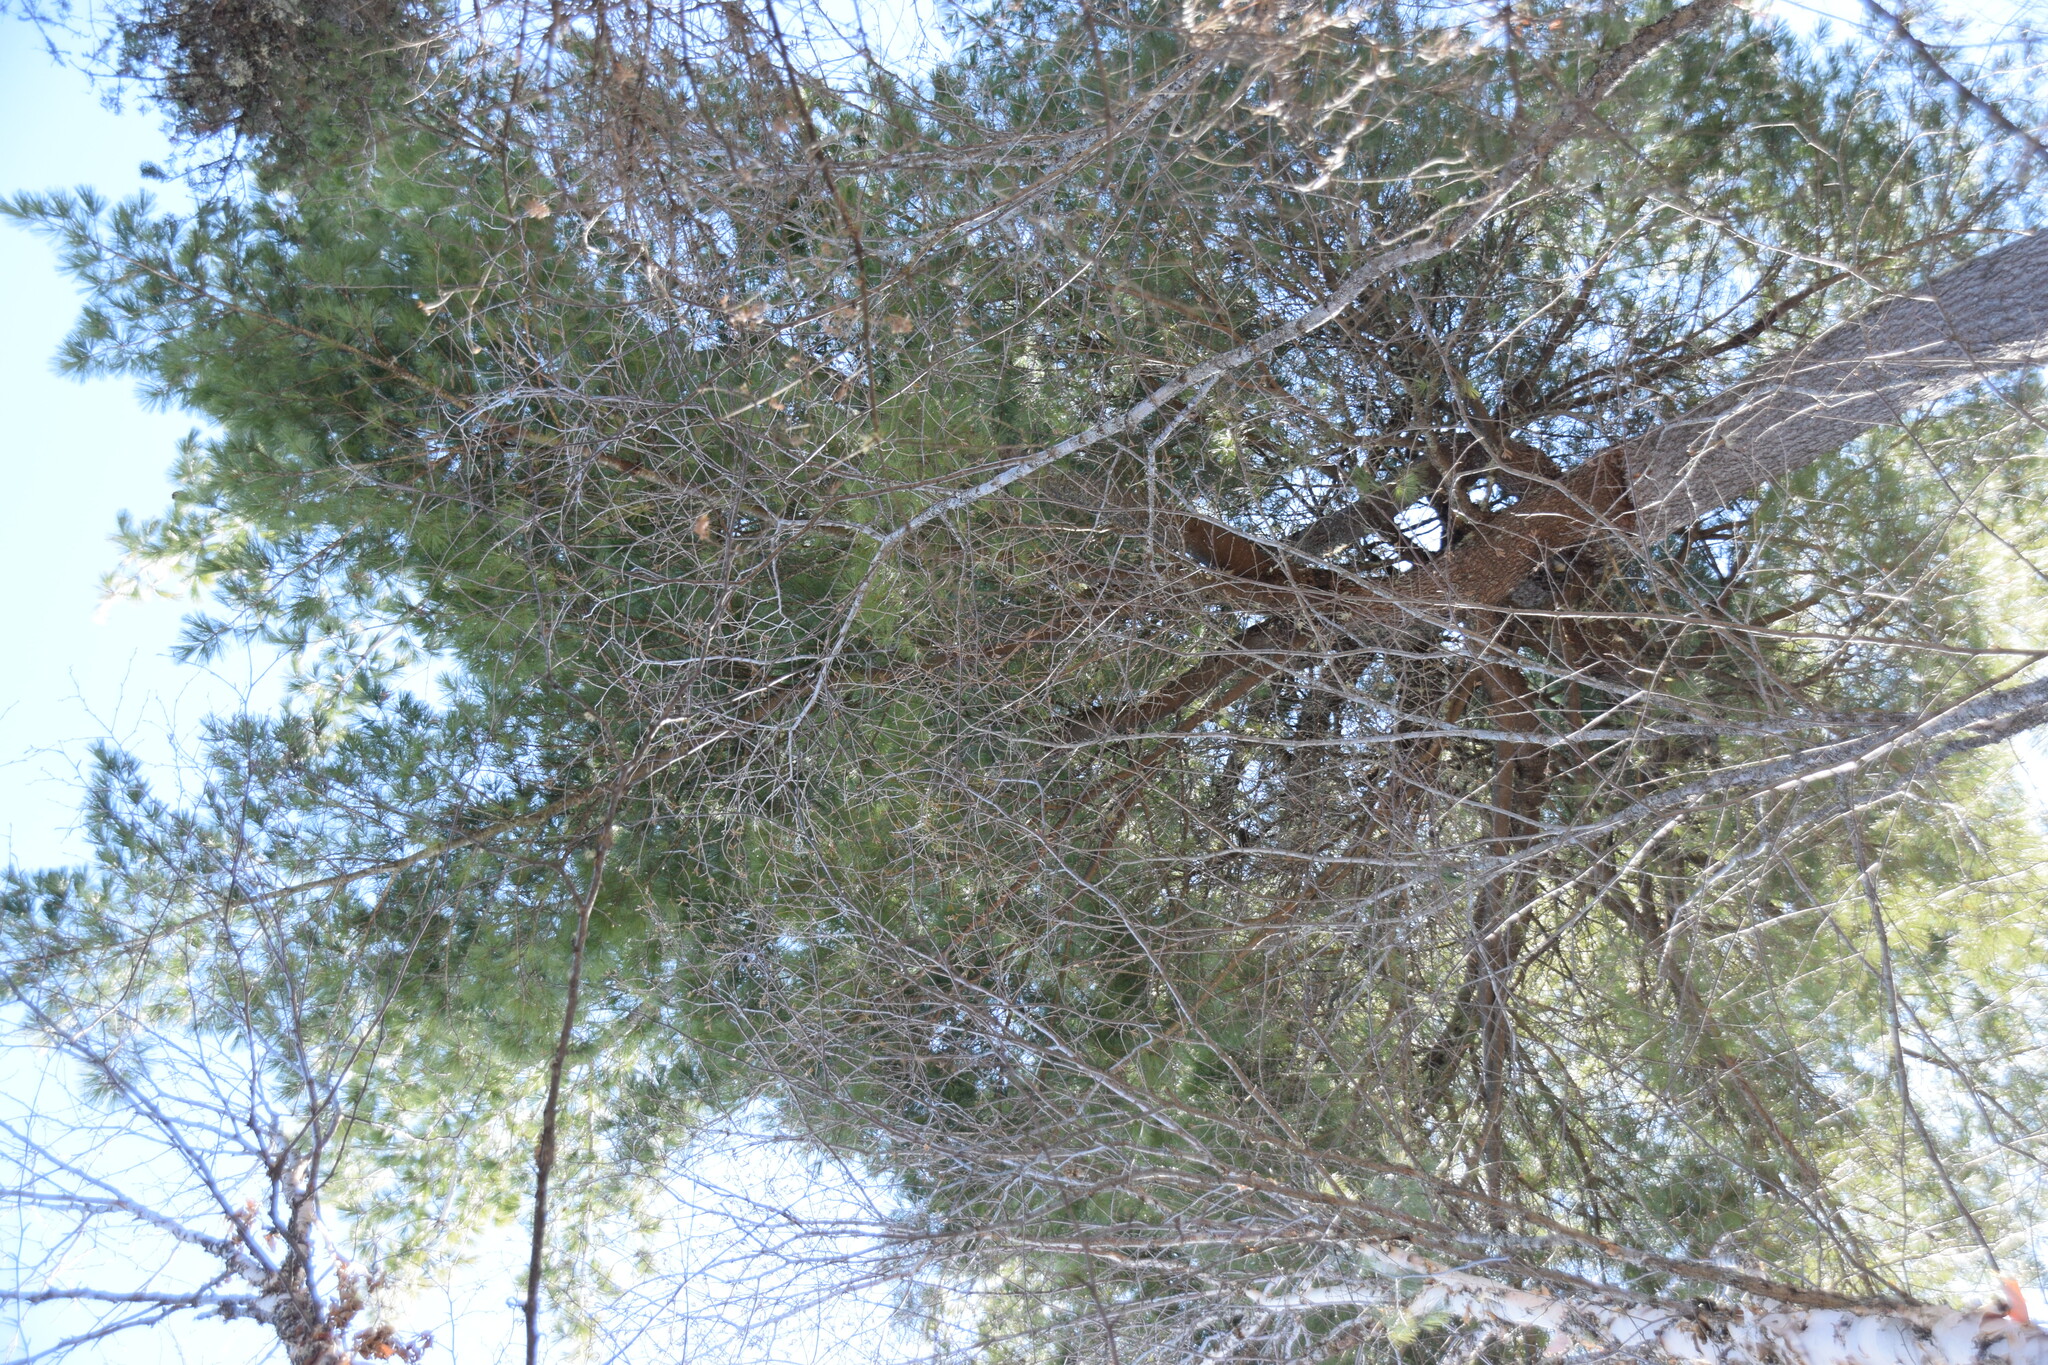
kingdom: Plantae
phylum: Tracheophyta
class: Pinopsida
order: Pinales
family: Pinaceae
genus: Pinus
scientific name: Pinus strobus
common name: Weymouth pine
